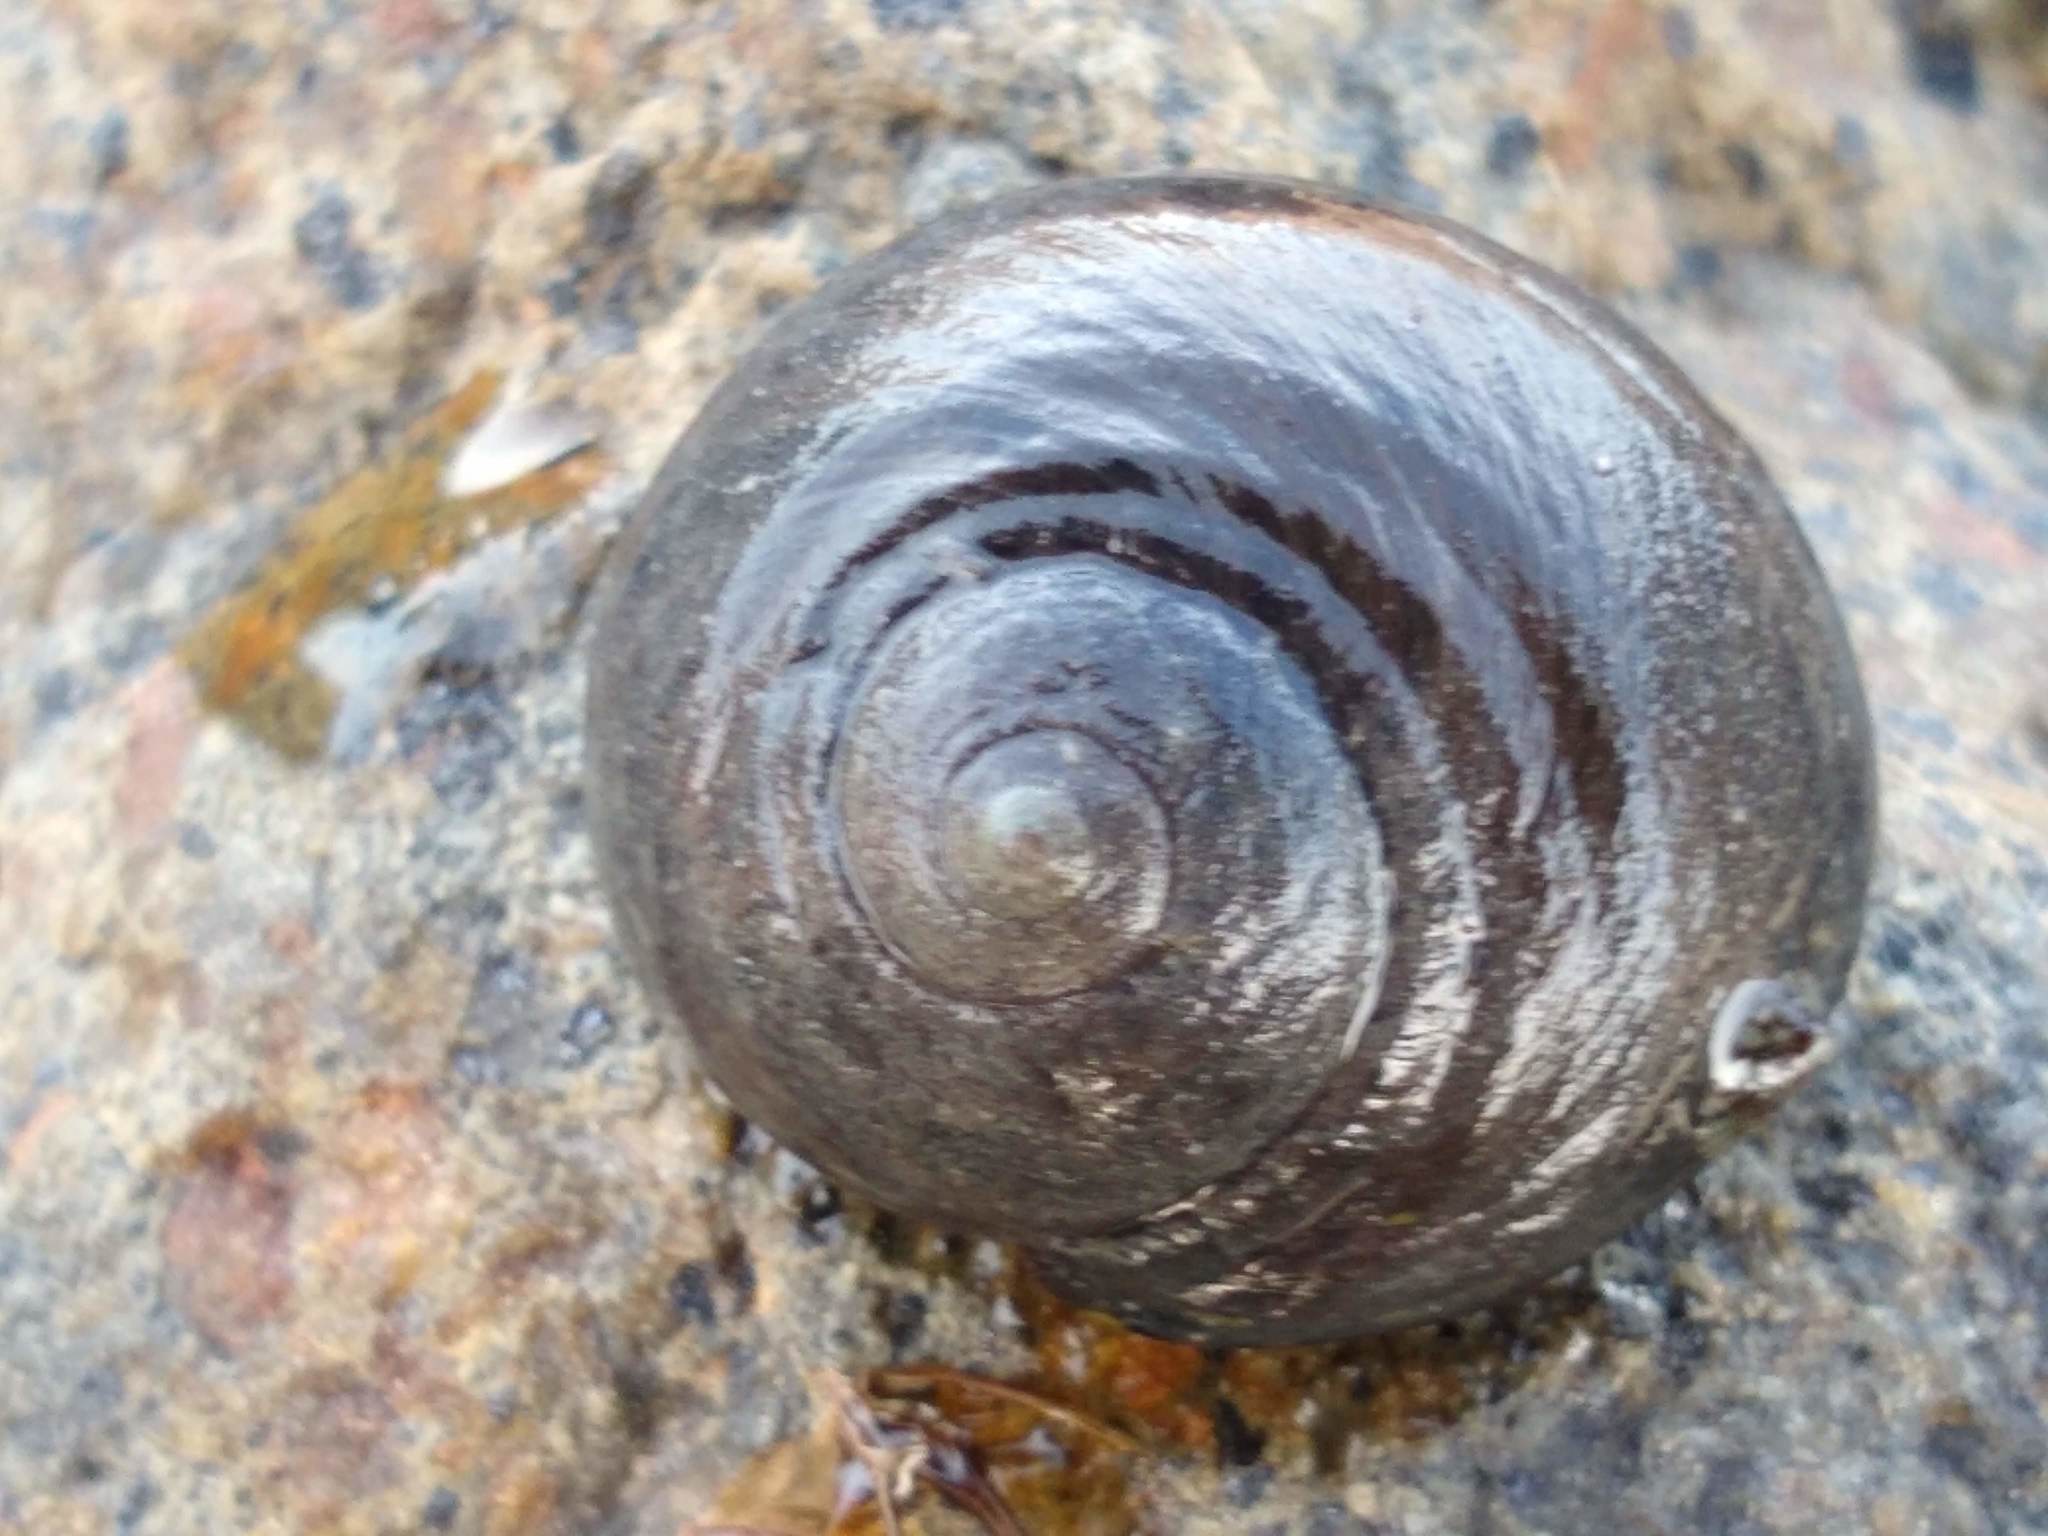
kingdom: Animalia
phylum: Mollusca
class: Gastropoda
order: Trochida
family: Trochidae
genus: Diloma
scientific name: Diloma zelandicum
